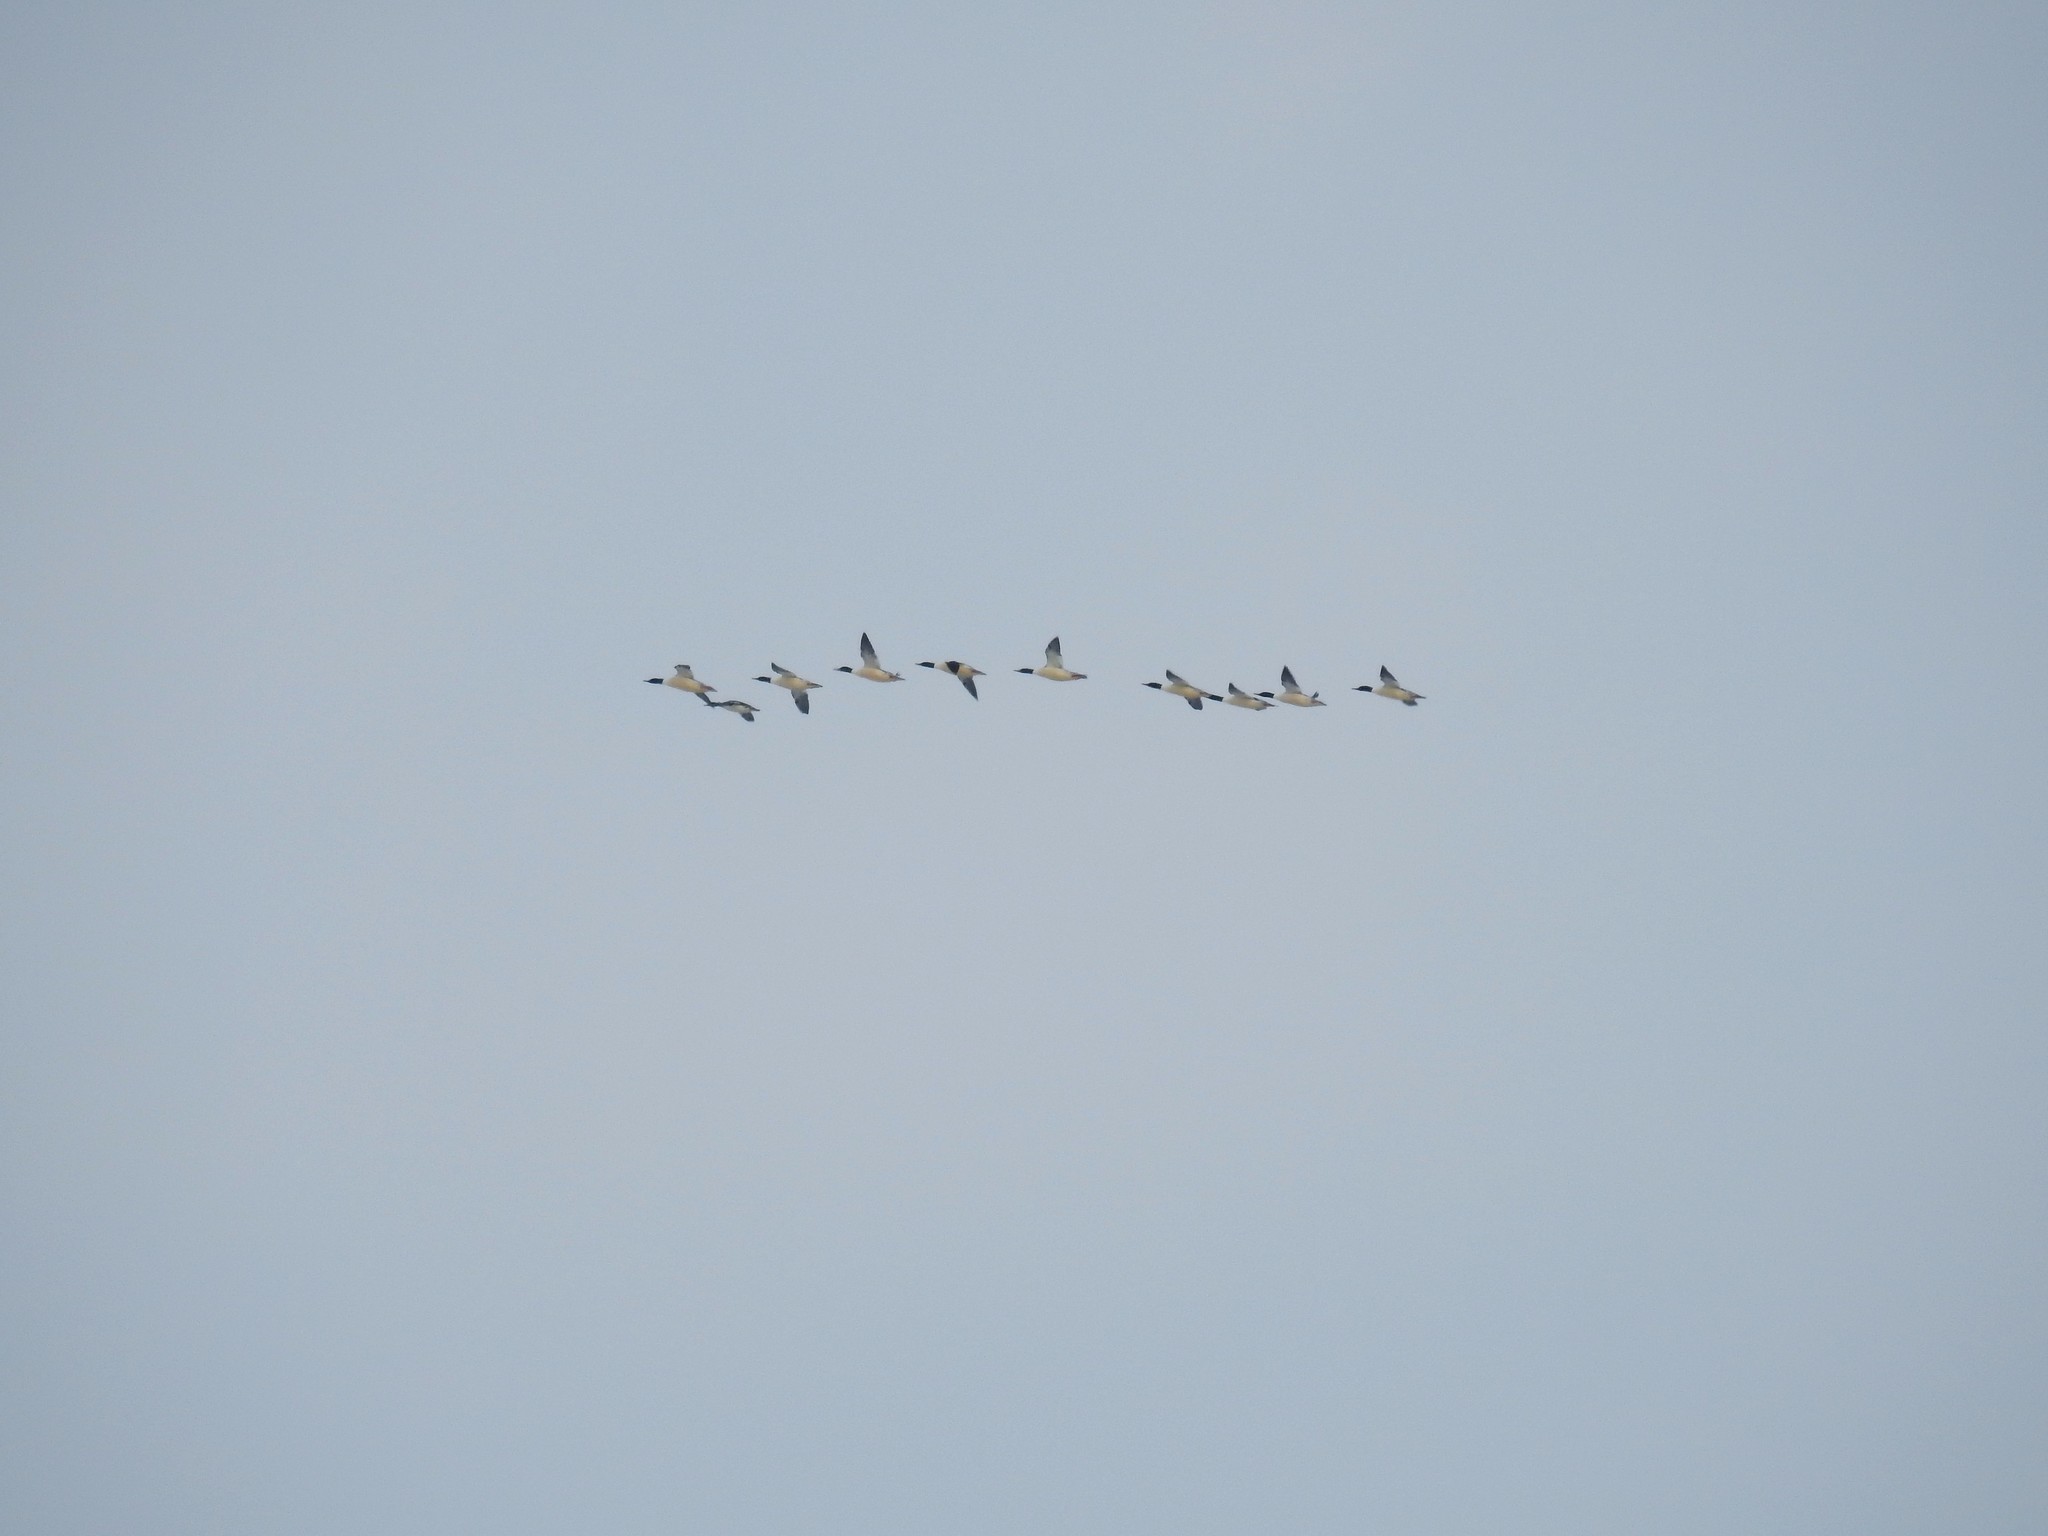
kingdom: Animalia
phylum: Chordata
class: Aves
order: Anseriformes
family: Anatidae
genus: Mergus
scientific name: Mergus merganser
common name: Common merganser
